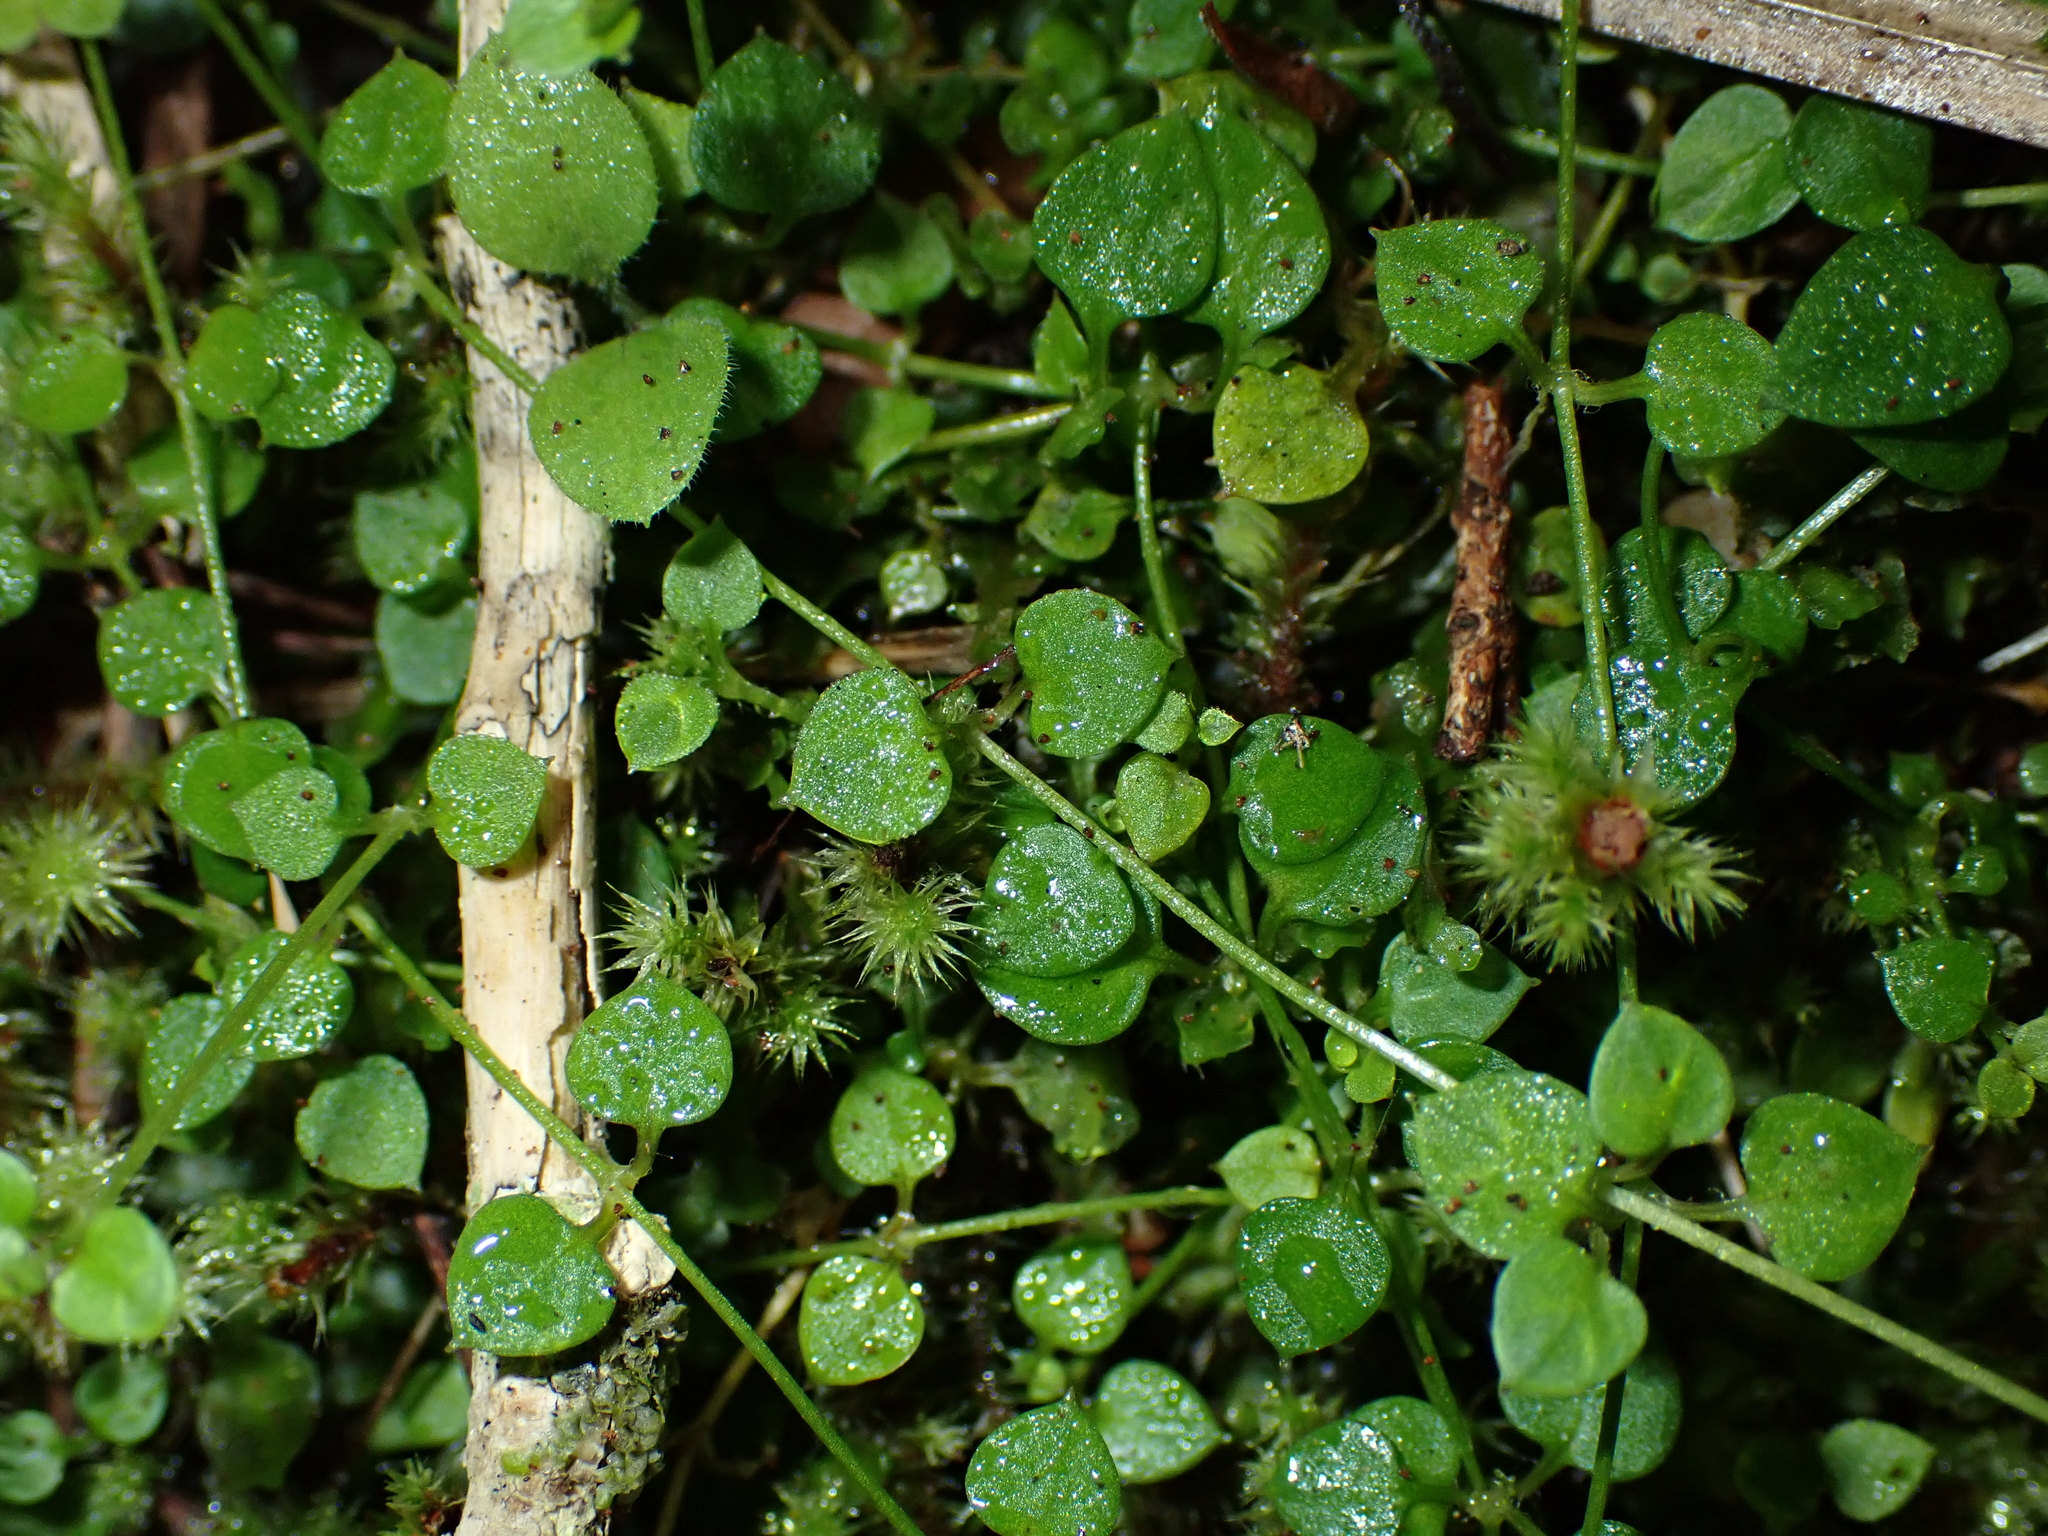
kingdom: Plantae
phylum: Tracheophyta
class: Magnoliopsida
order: Caryophyllales
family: Caryophyllaceae
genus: Stellaria
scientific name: Stellaria parviflora
